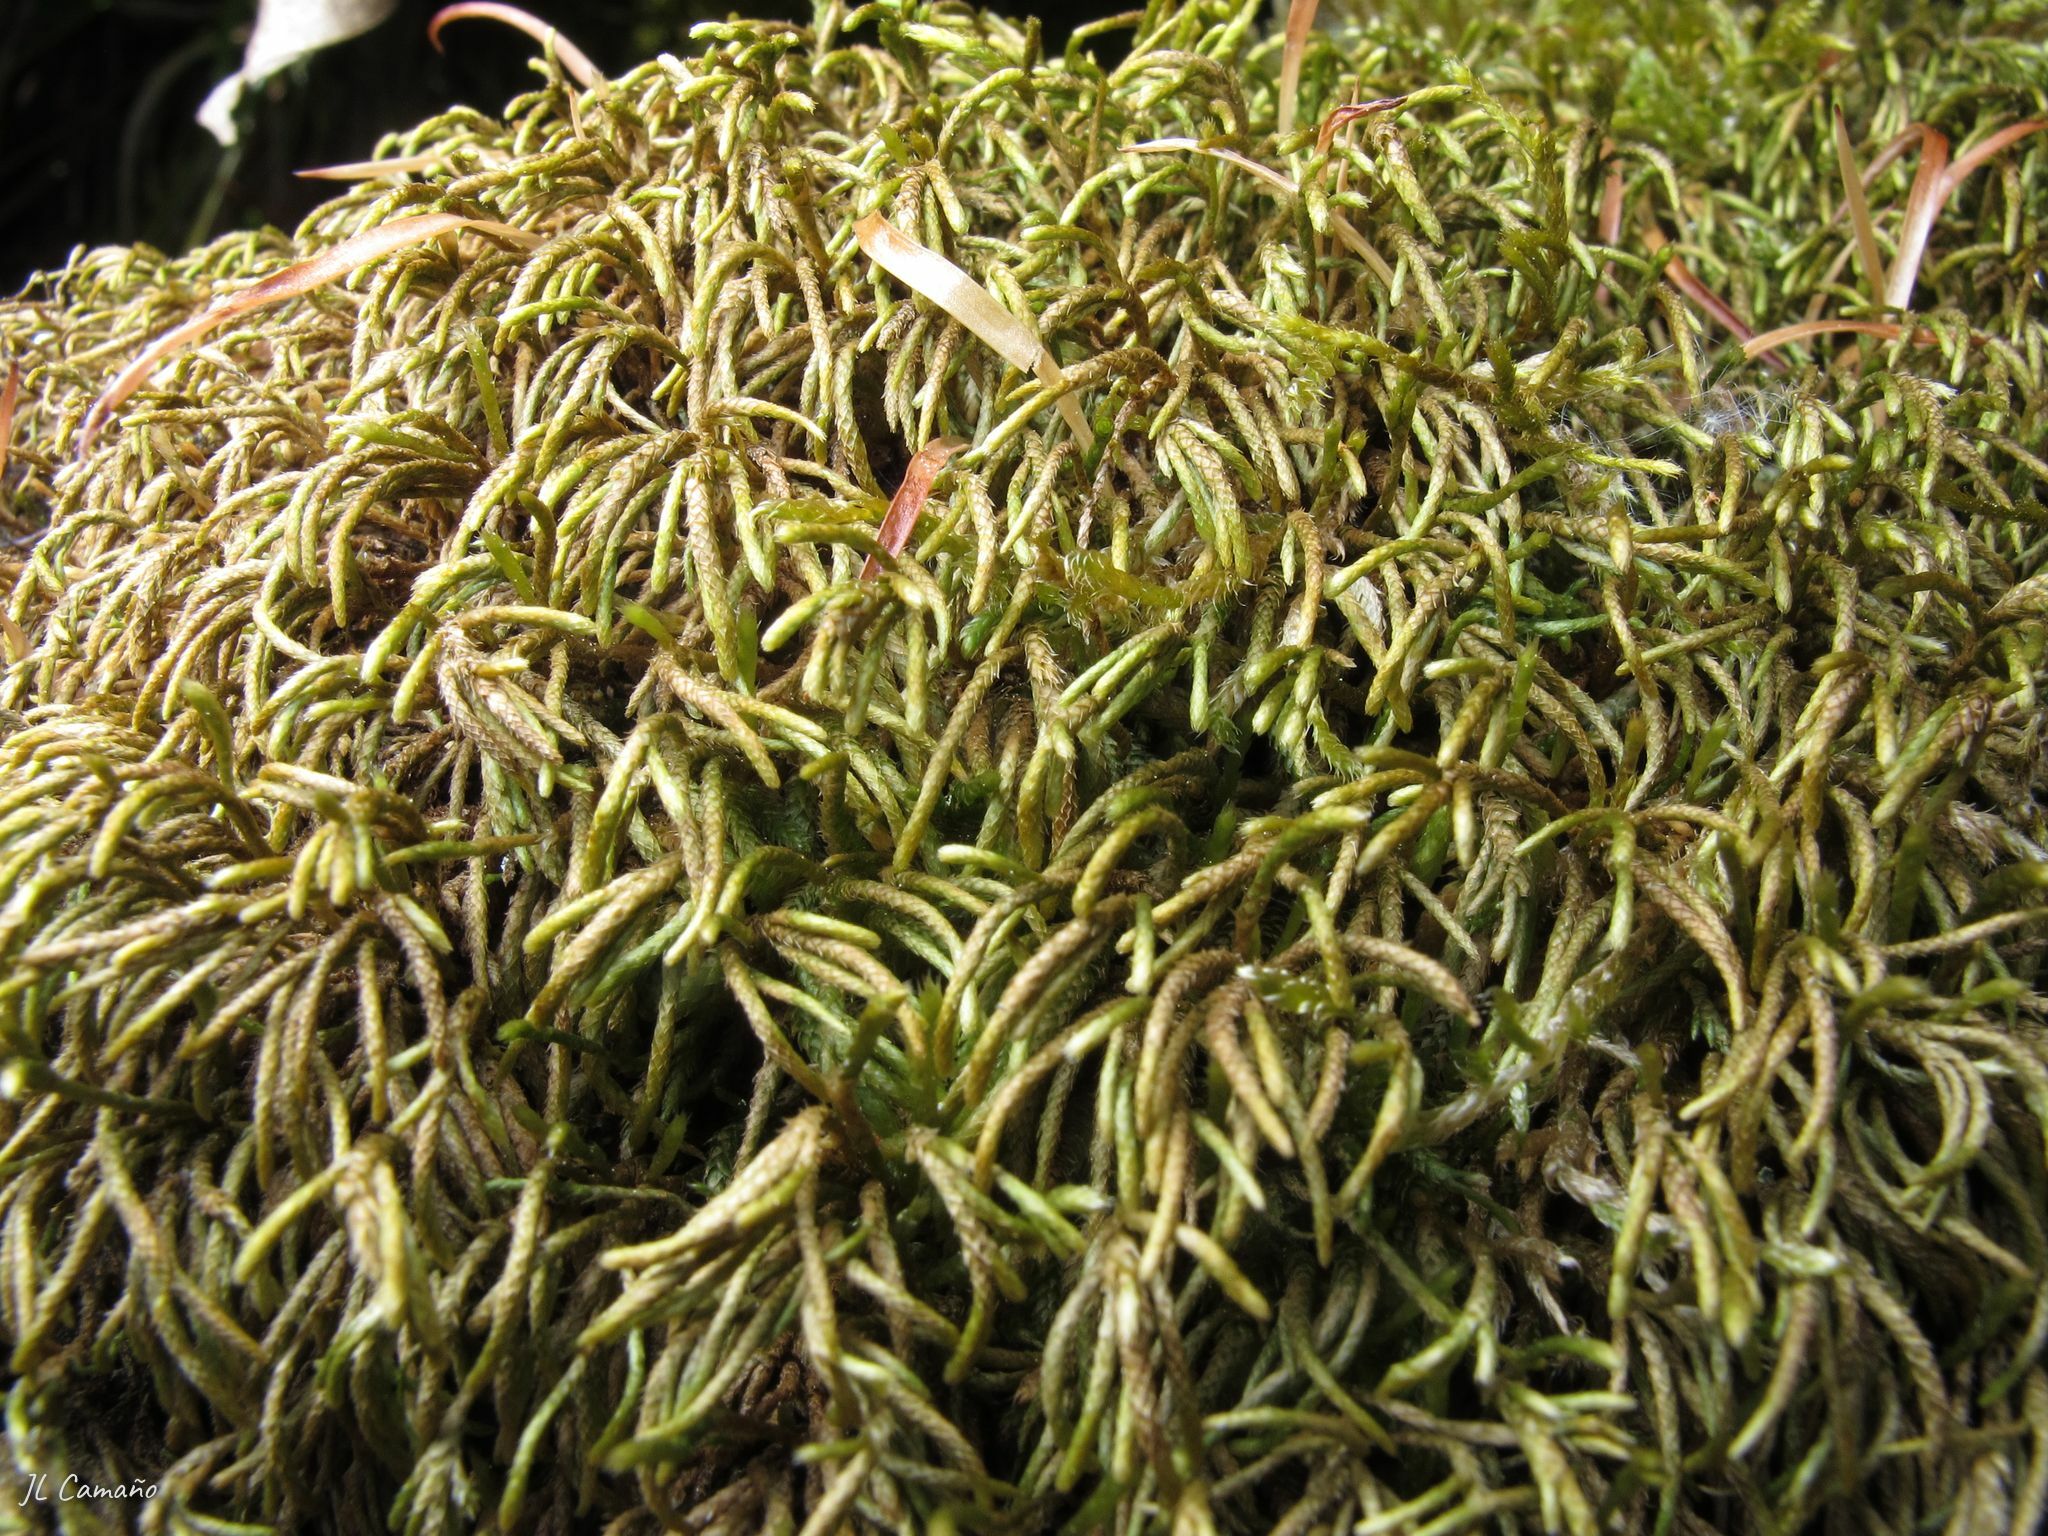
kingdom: Plantae
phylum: Bryophyta
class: Bryopsida
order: Hypnales
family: Lembophyllaceae
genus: Nogopterium
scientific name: Nogopterium gracile
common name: Bird's-foot wing-moss
